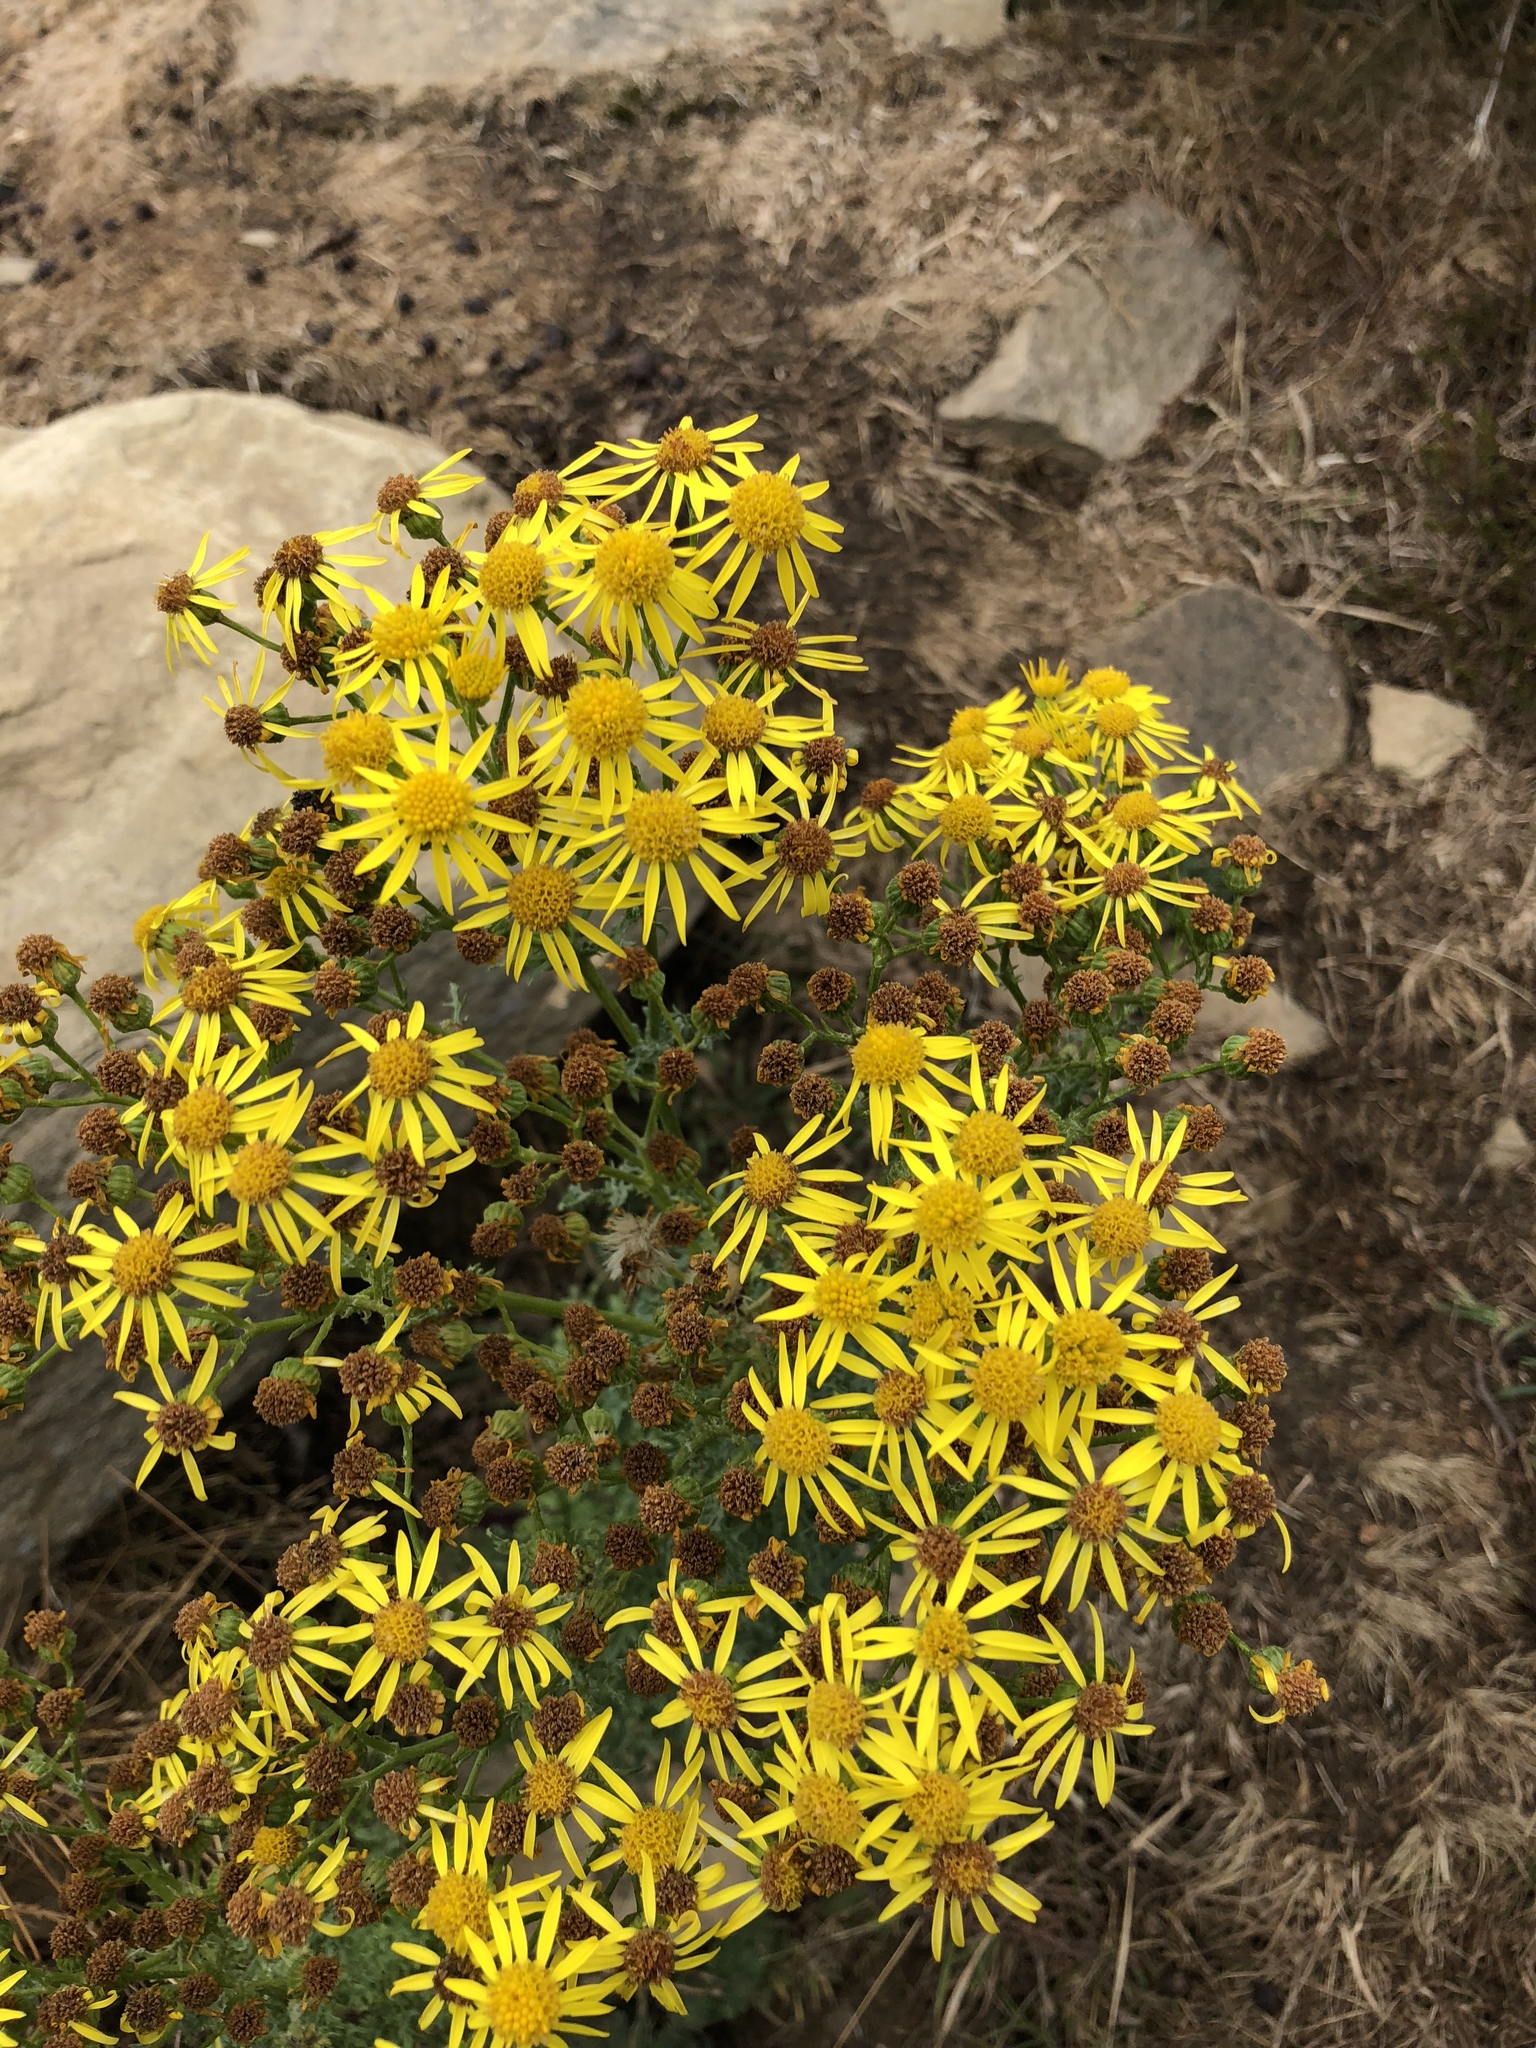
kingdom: Plantae
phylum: Tracheophyta
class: Magnoliopsida
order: Asterales
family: Asteraceae
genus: Jacobaea
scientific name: Jacobaea vulgaris
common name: Stinking willie
